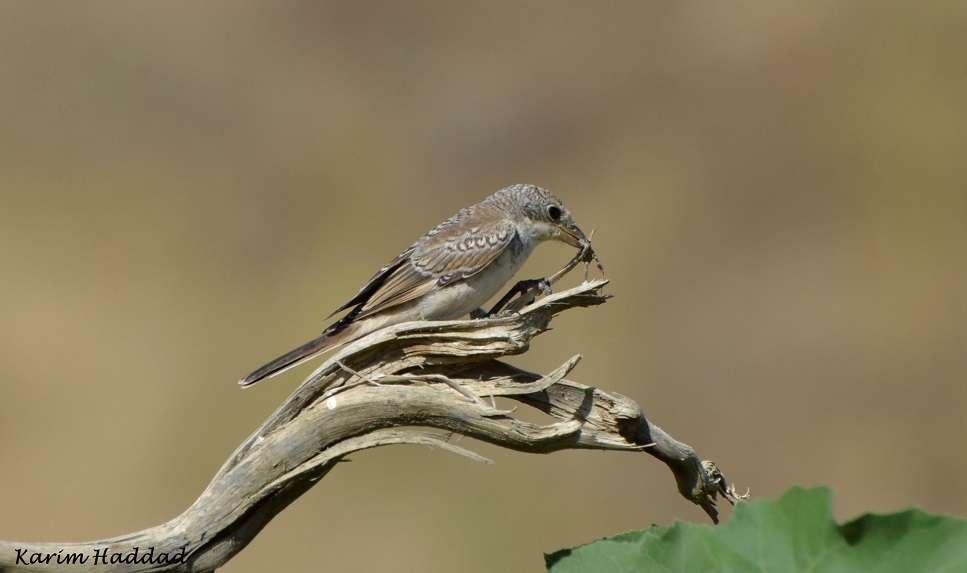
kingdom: Animalia
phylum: Chordata
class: Aves
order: Passeriformes
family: Laniidae
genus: Lanius
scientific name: Lanius senator
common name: Woodchat shrike
